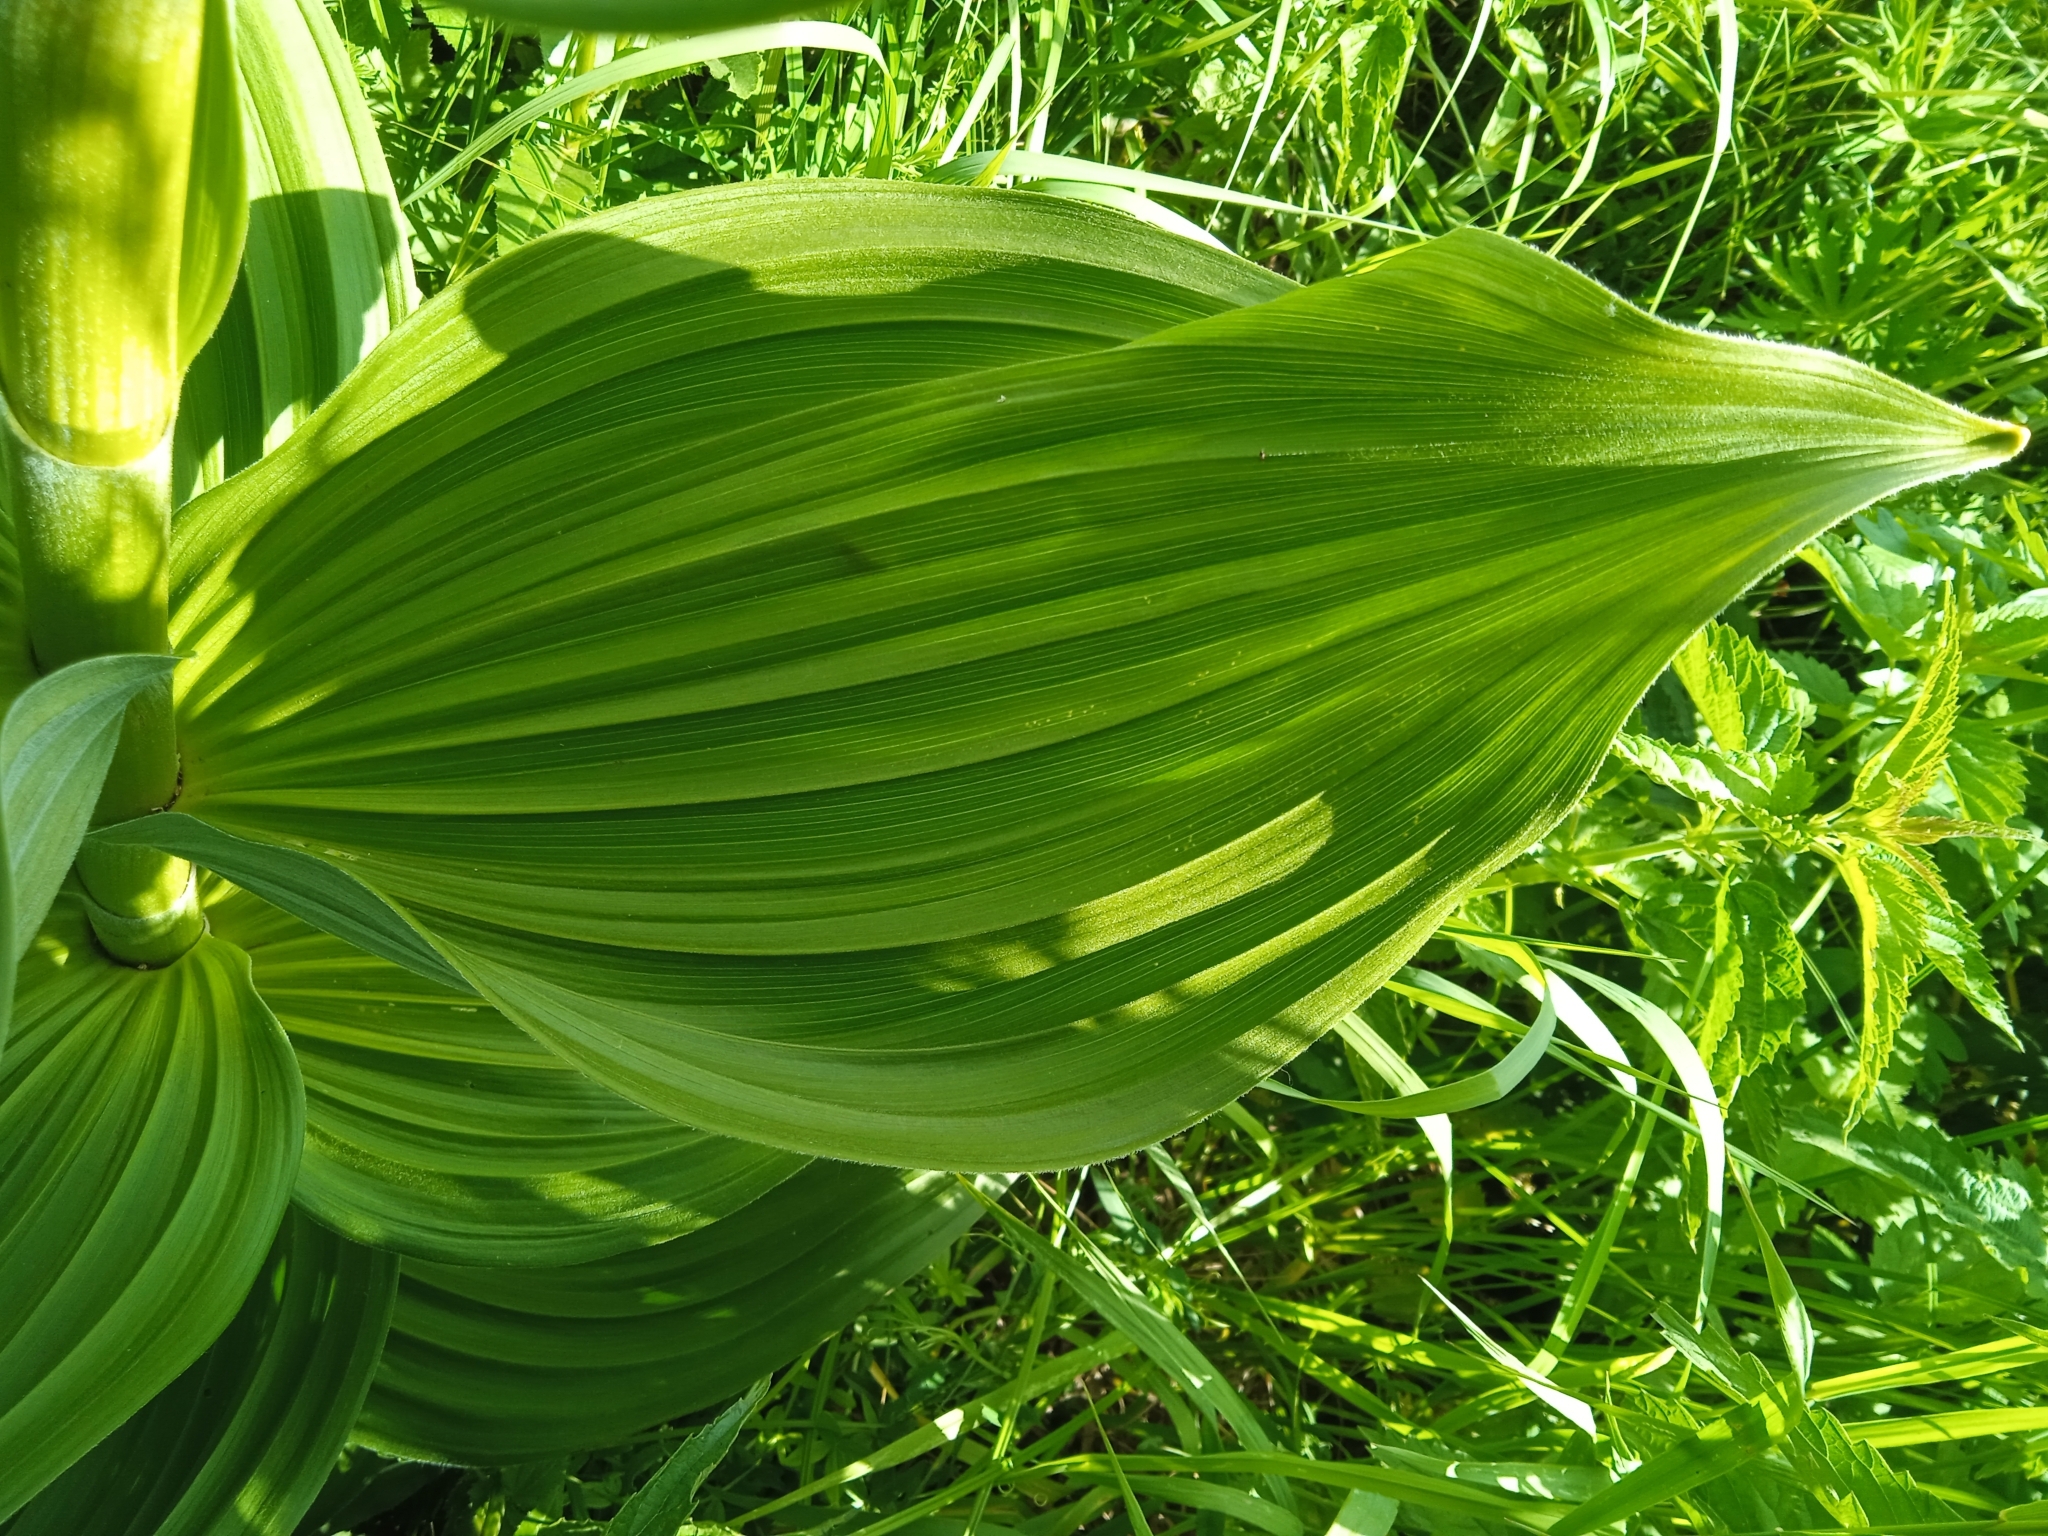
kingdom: Plantae
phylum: Tracheophyta
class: Liliopsida
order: Liliales
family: Melanthiaceae
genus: Veratrum
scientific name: Veratrum lobelianum
